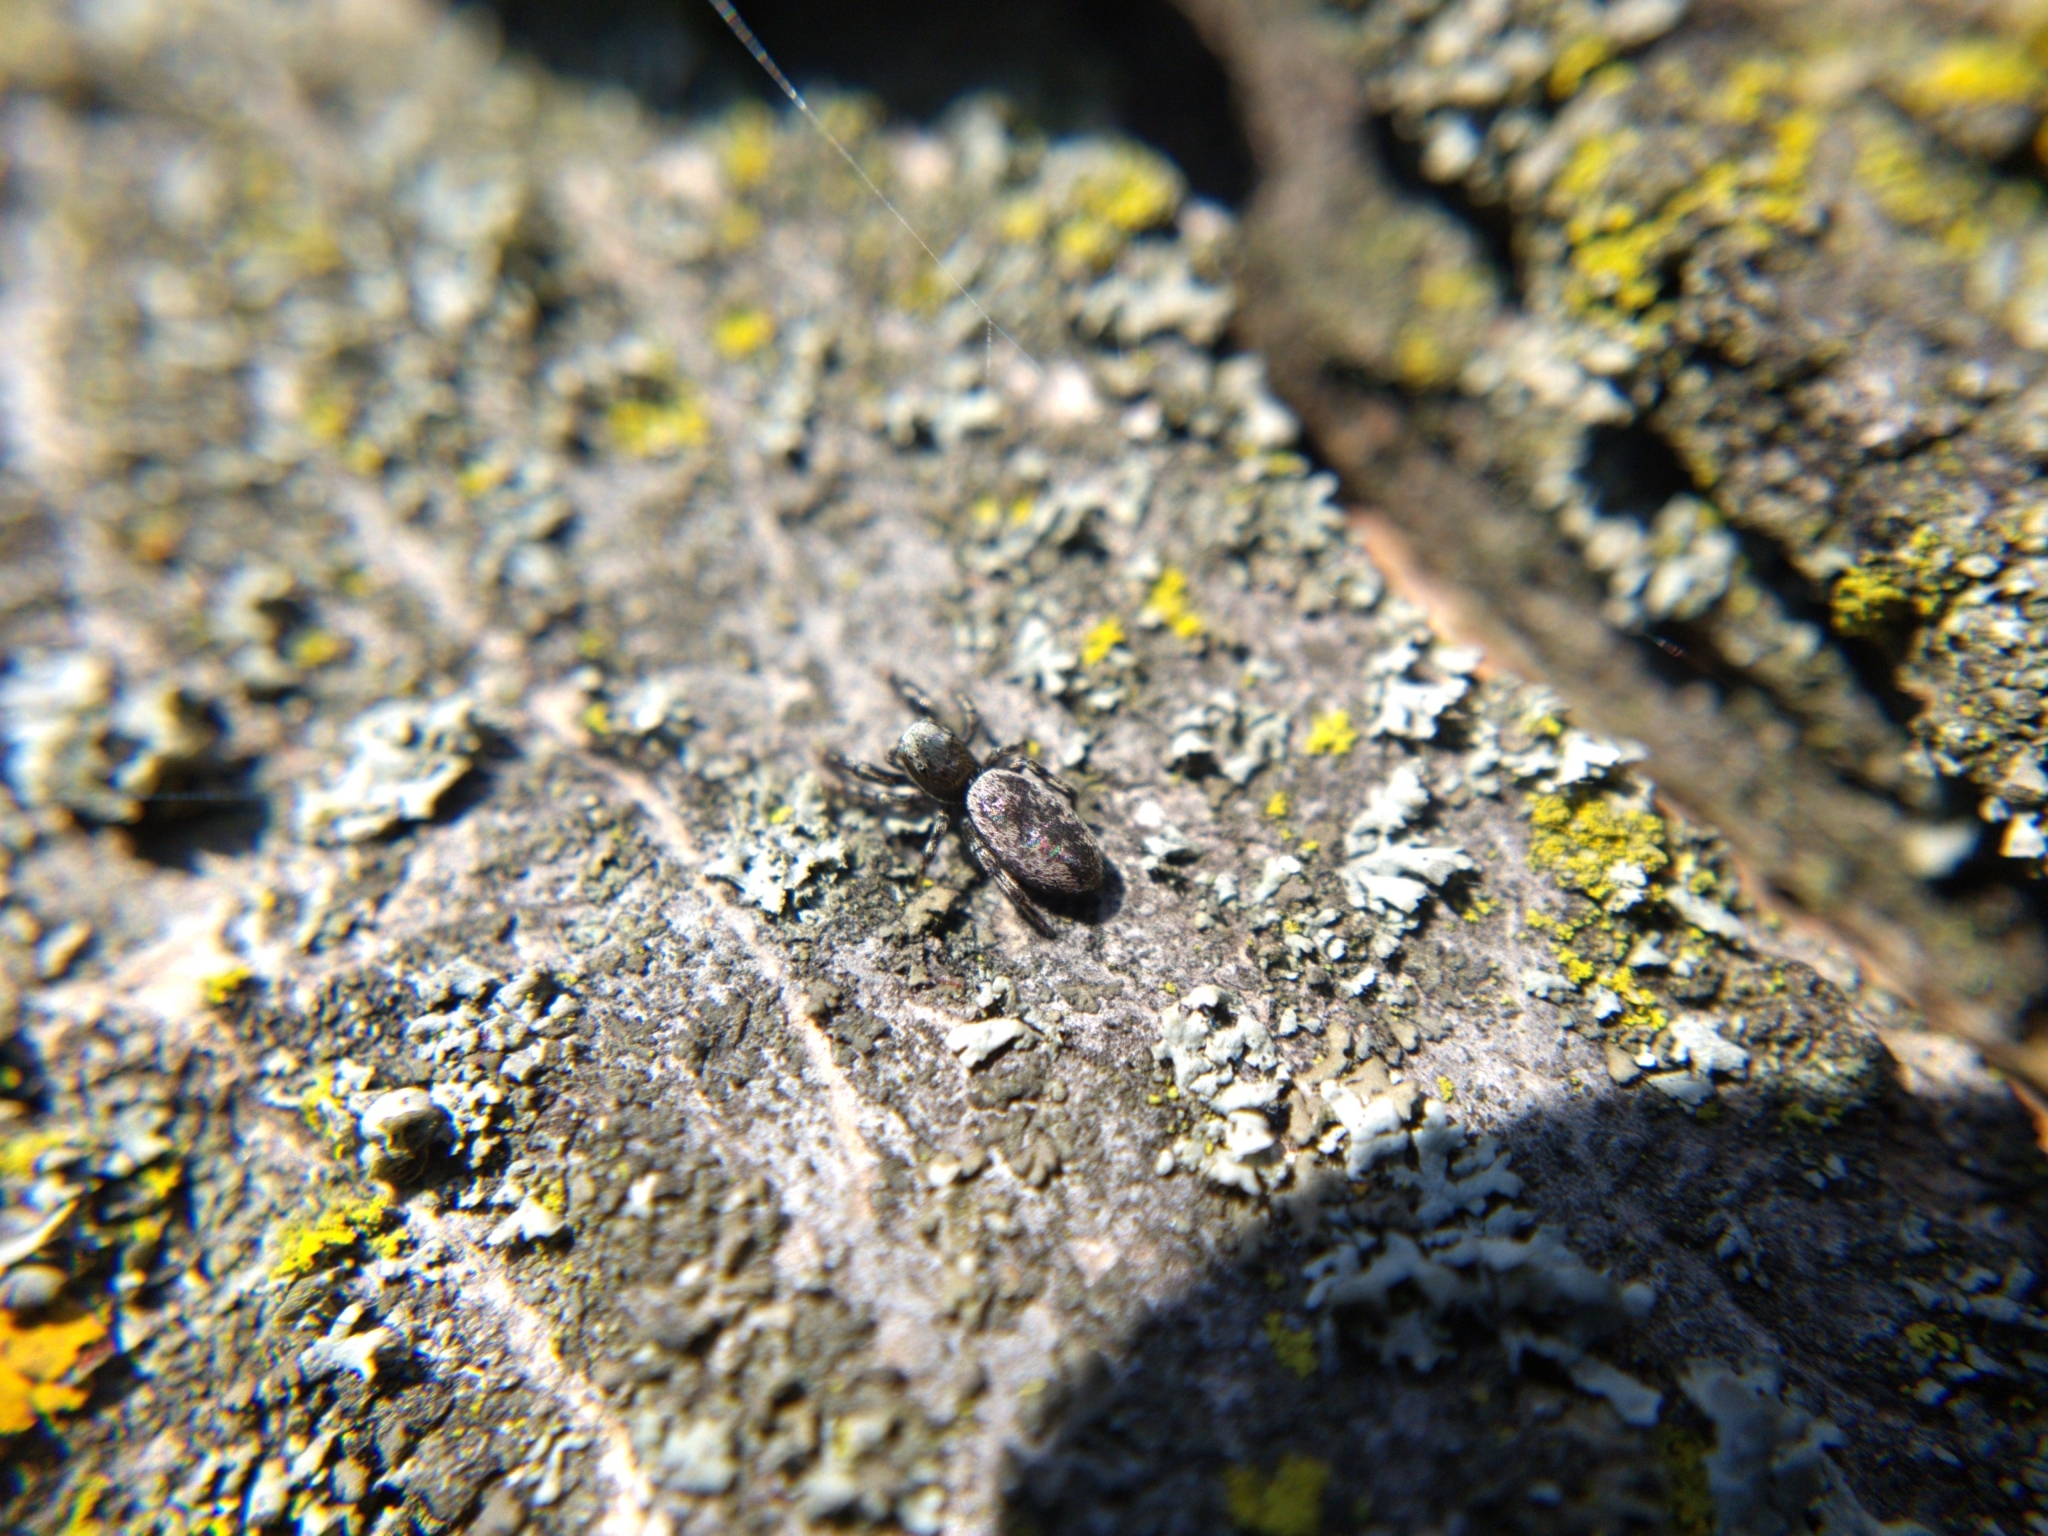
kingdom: Animalia
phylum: Arthropoda
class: Arachnida
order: Araneae
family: Salticidae
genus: Tutelina
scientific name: Tutelina harti
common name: Hart's jumping spider
